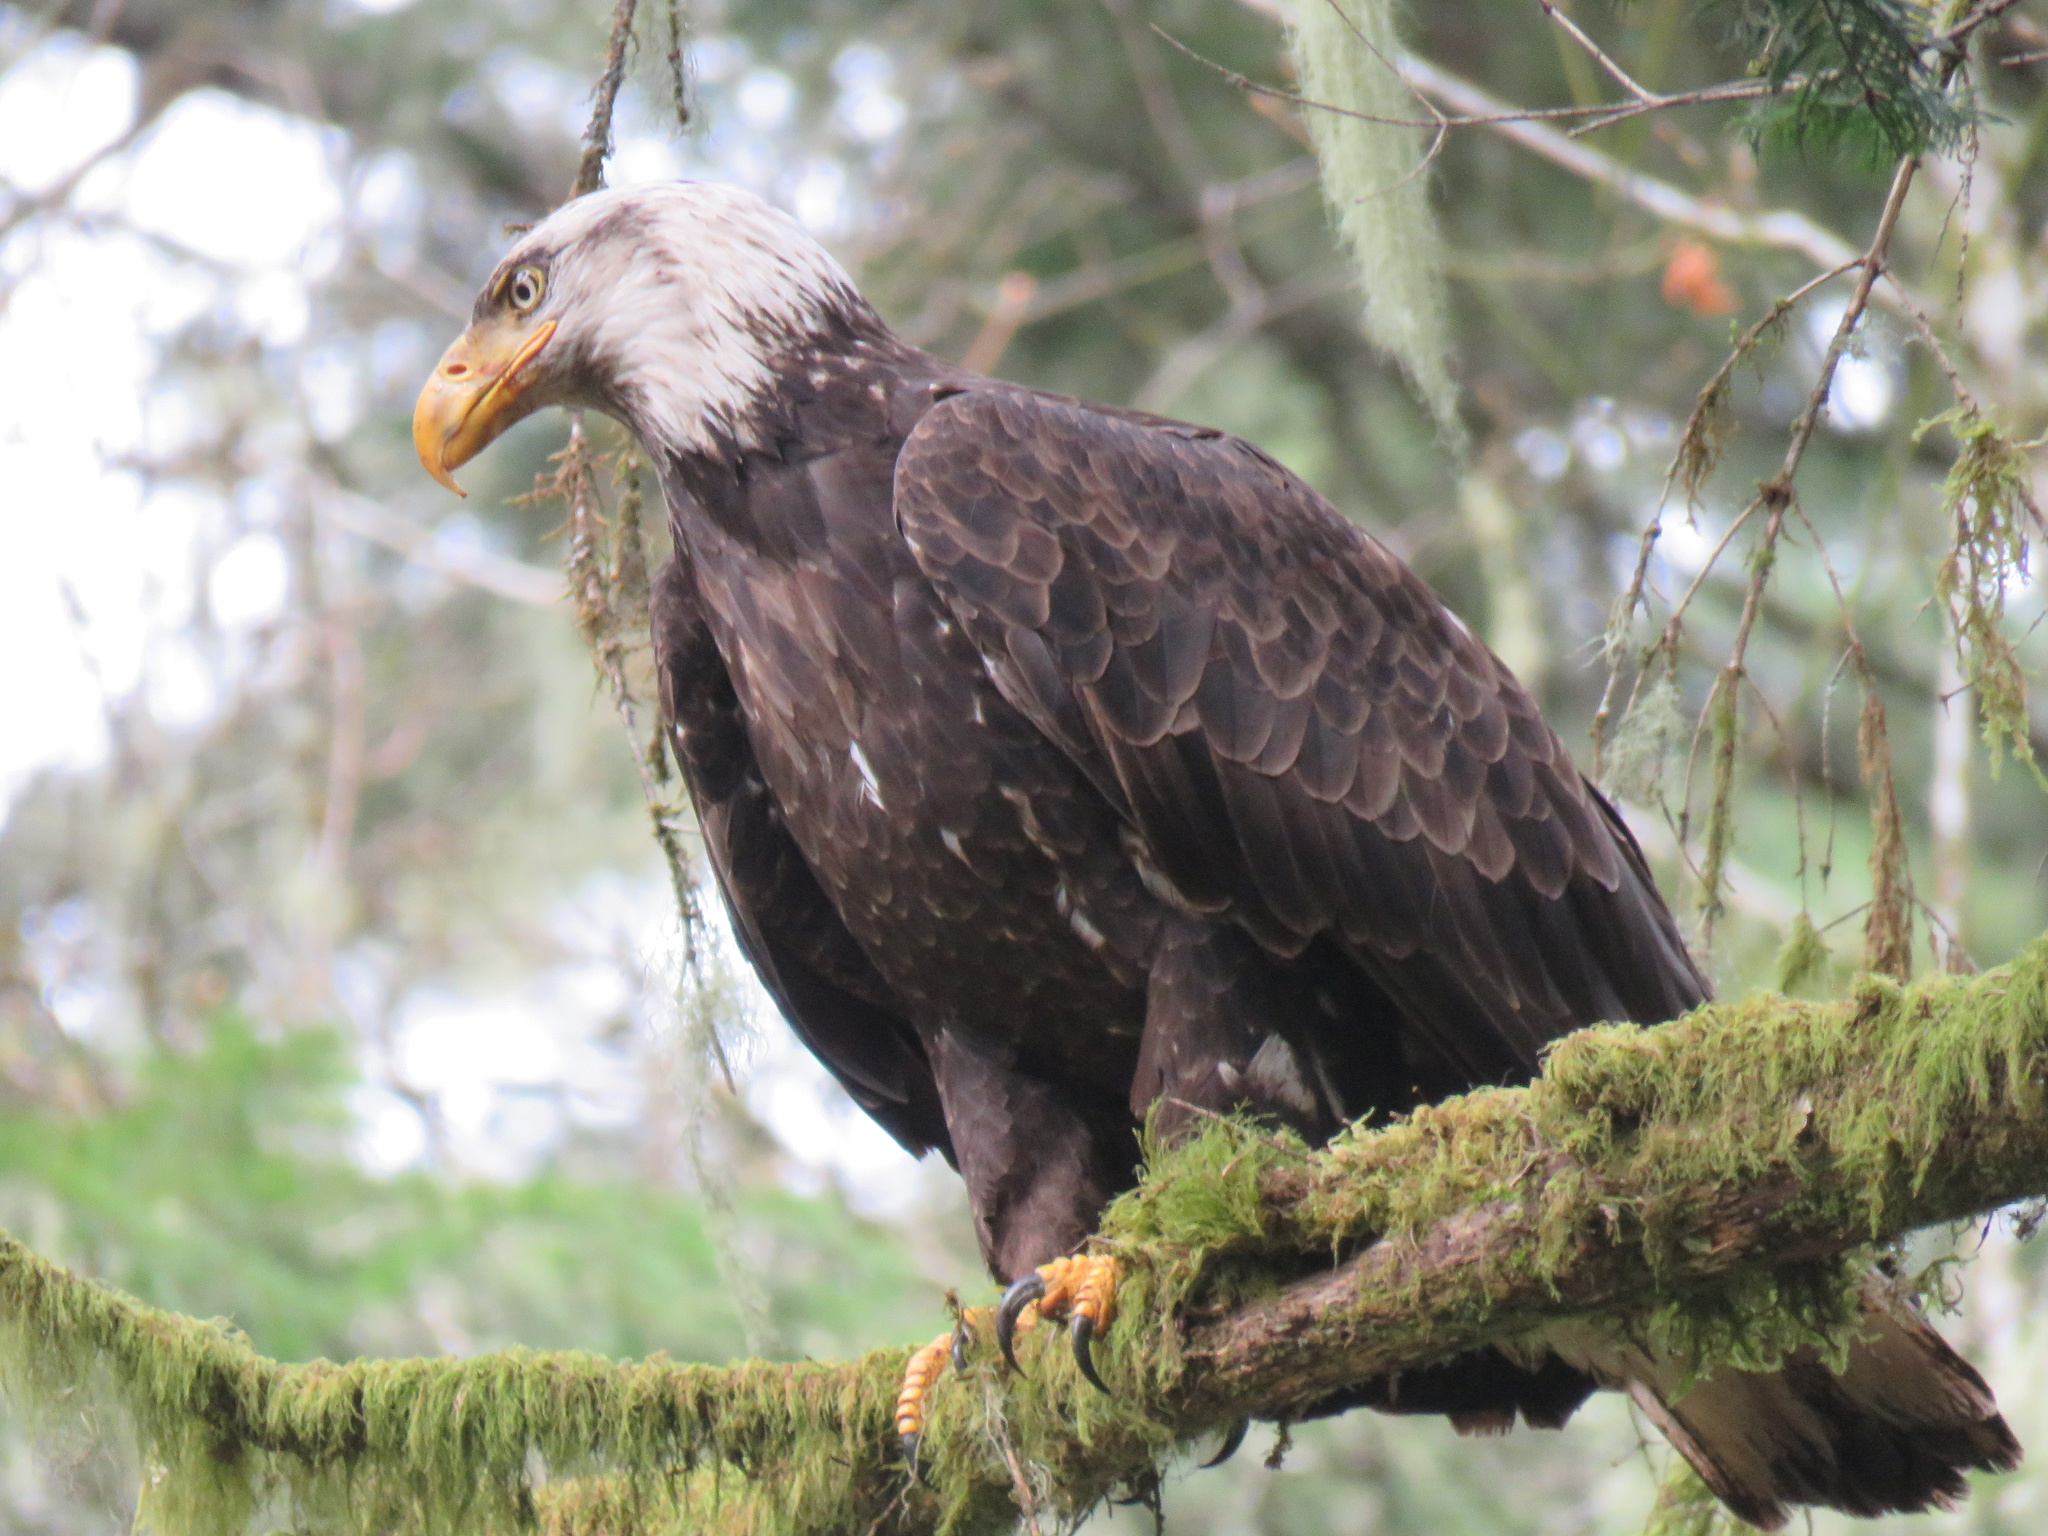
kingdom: Animalia
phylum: Chordata
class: Aves
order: Accipitriformes
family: Accipitridae
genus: Haliaeetus
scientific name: Haliaeetus leucocephalus
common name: Bald eagle
